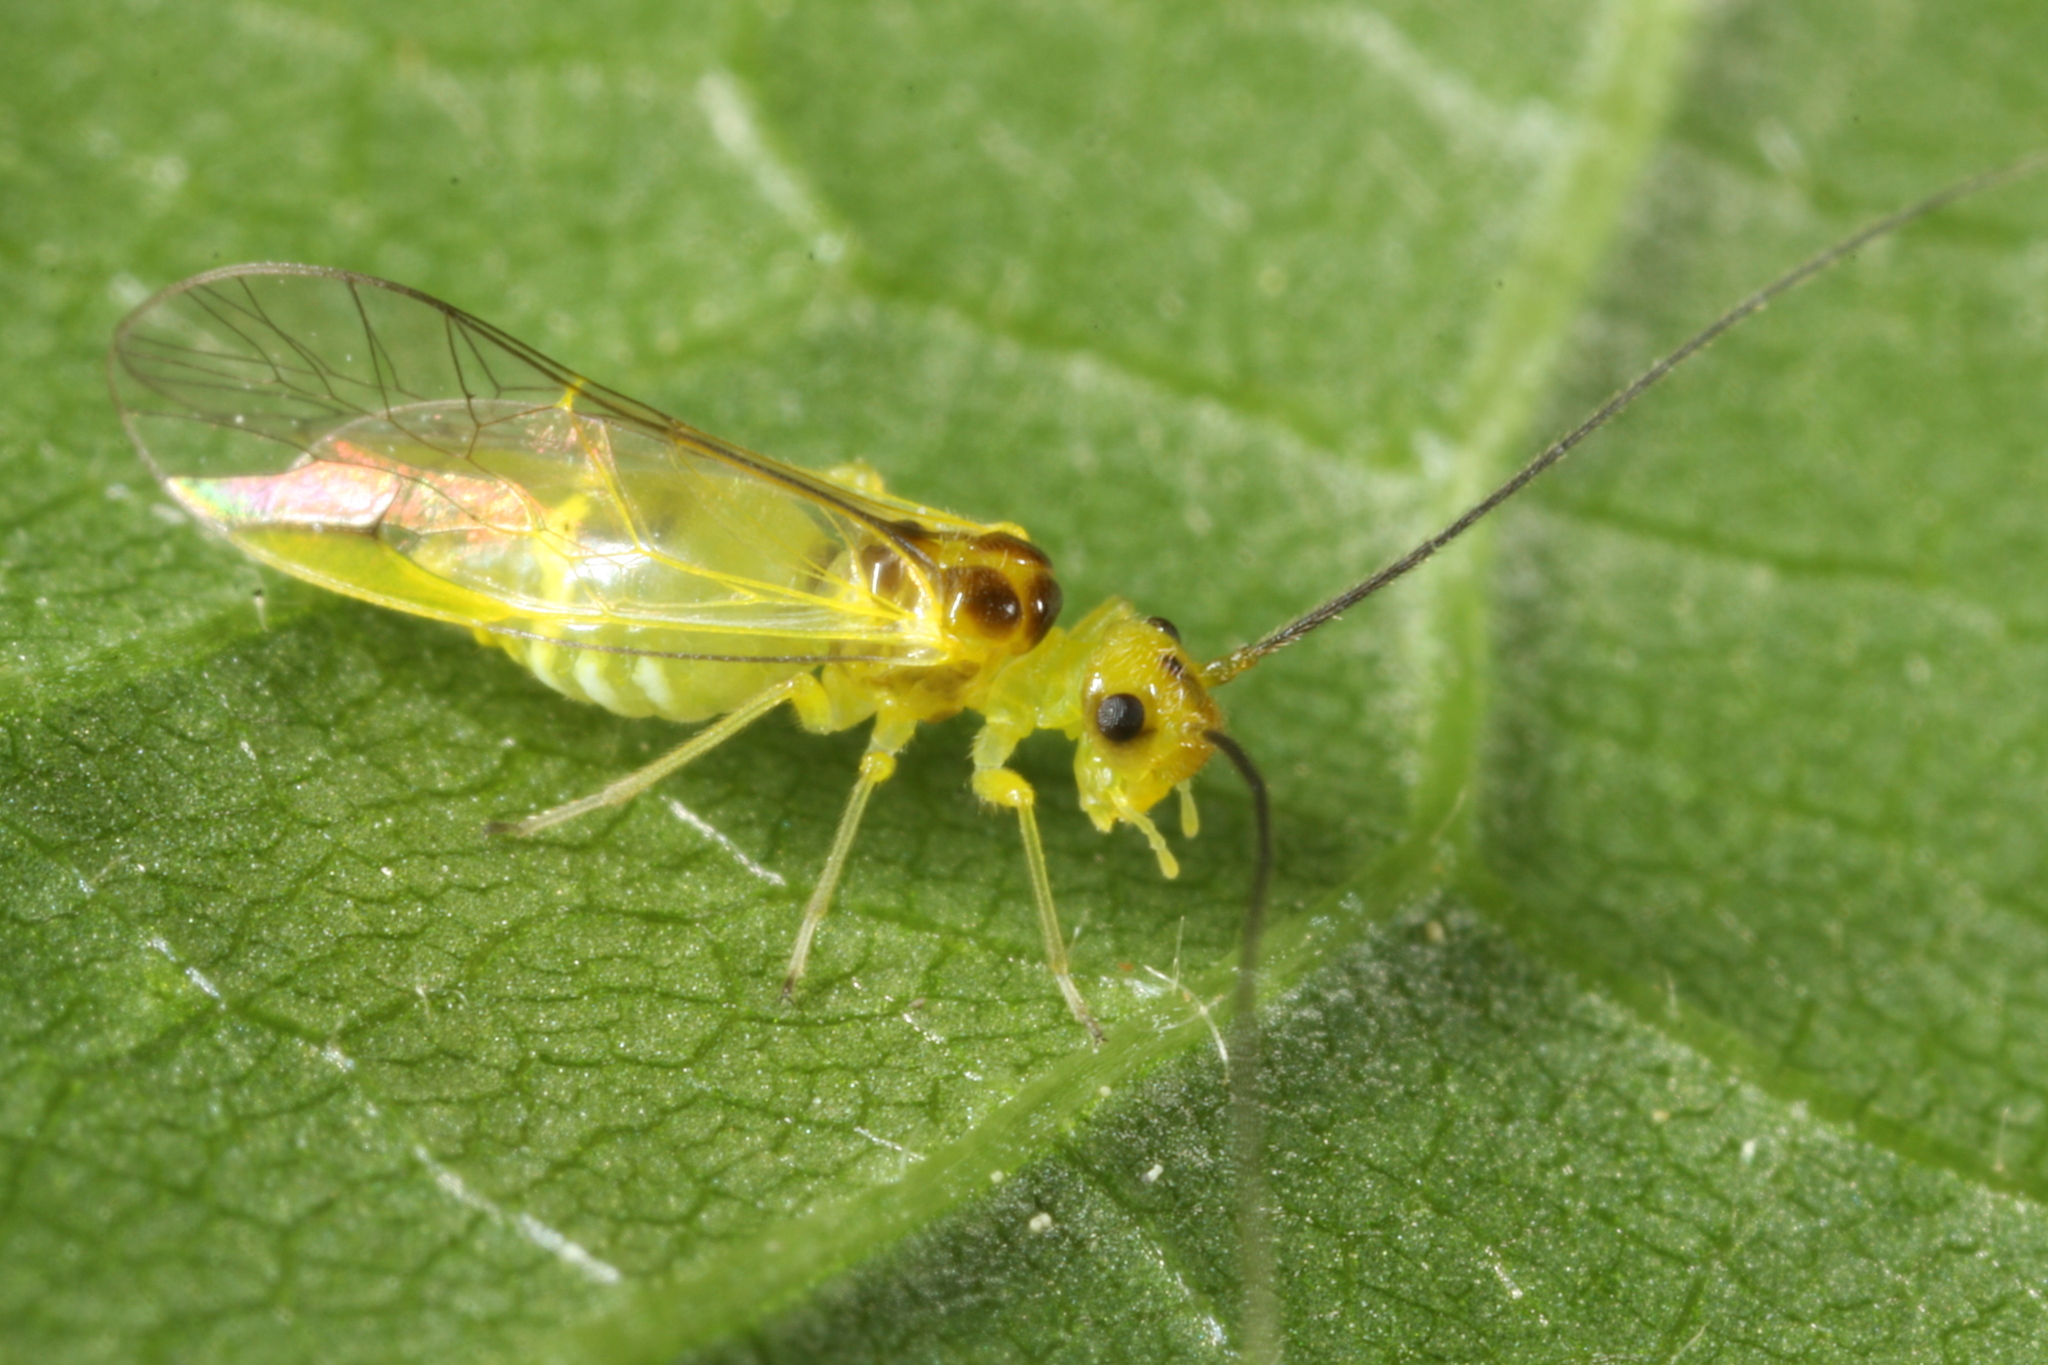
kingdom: Animalia
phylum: Arthropoda
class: Insecta
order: Psocodea
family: Stenopsocidae
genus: Stenopsocus
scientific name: Stenopsocus stigmaticus
